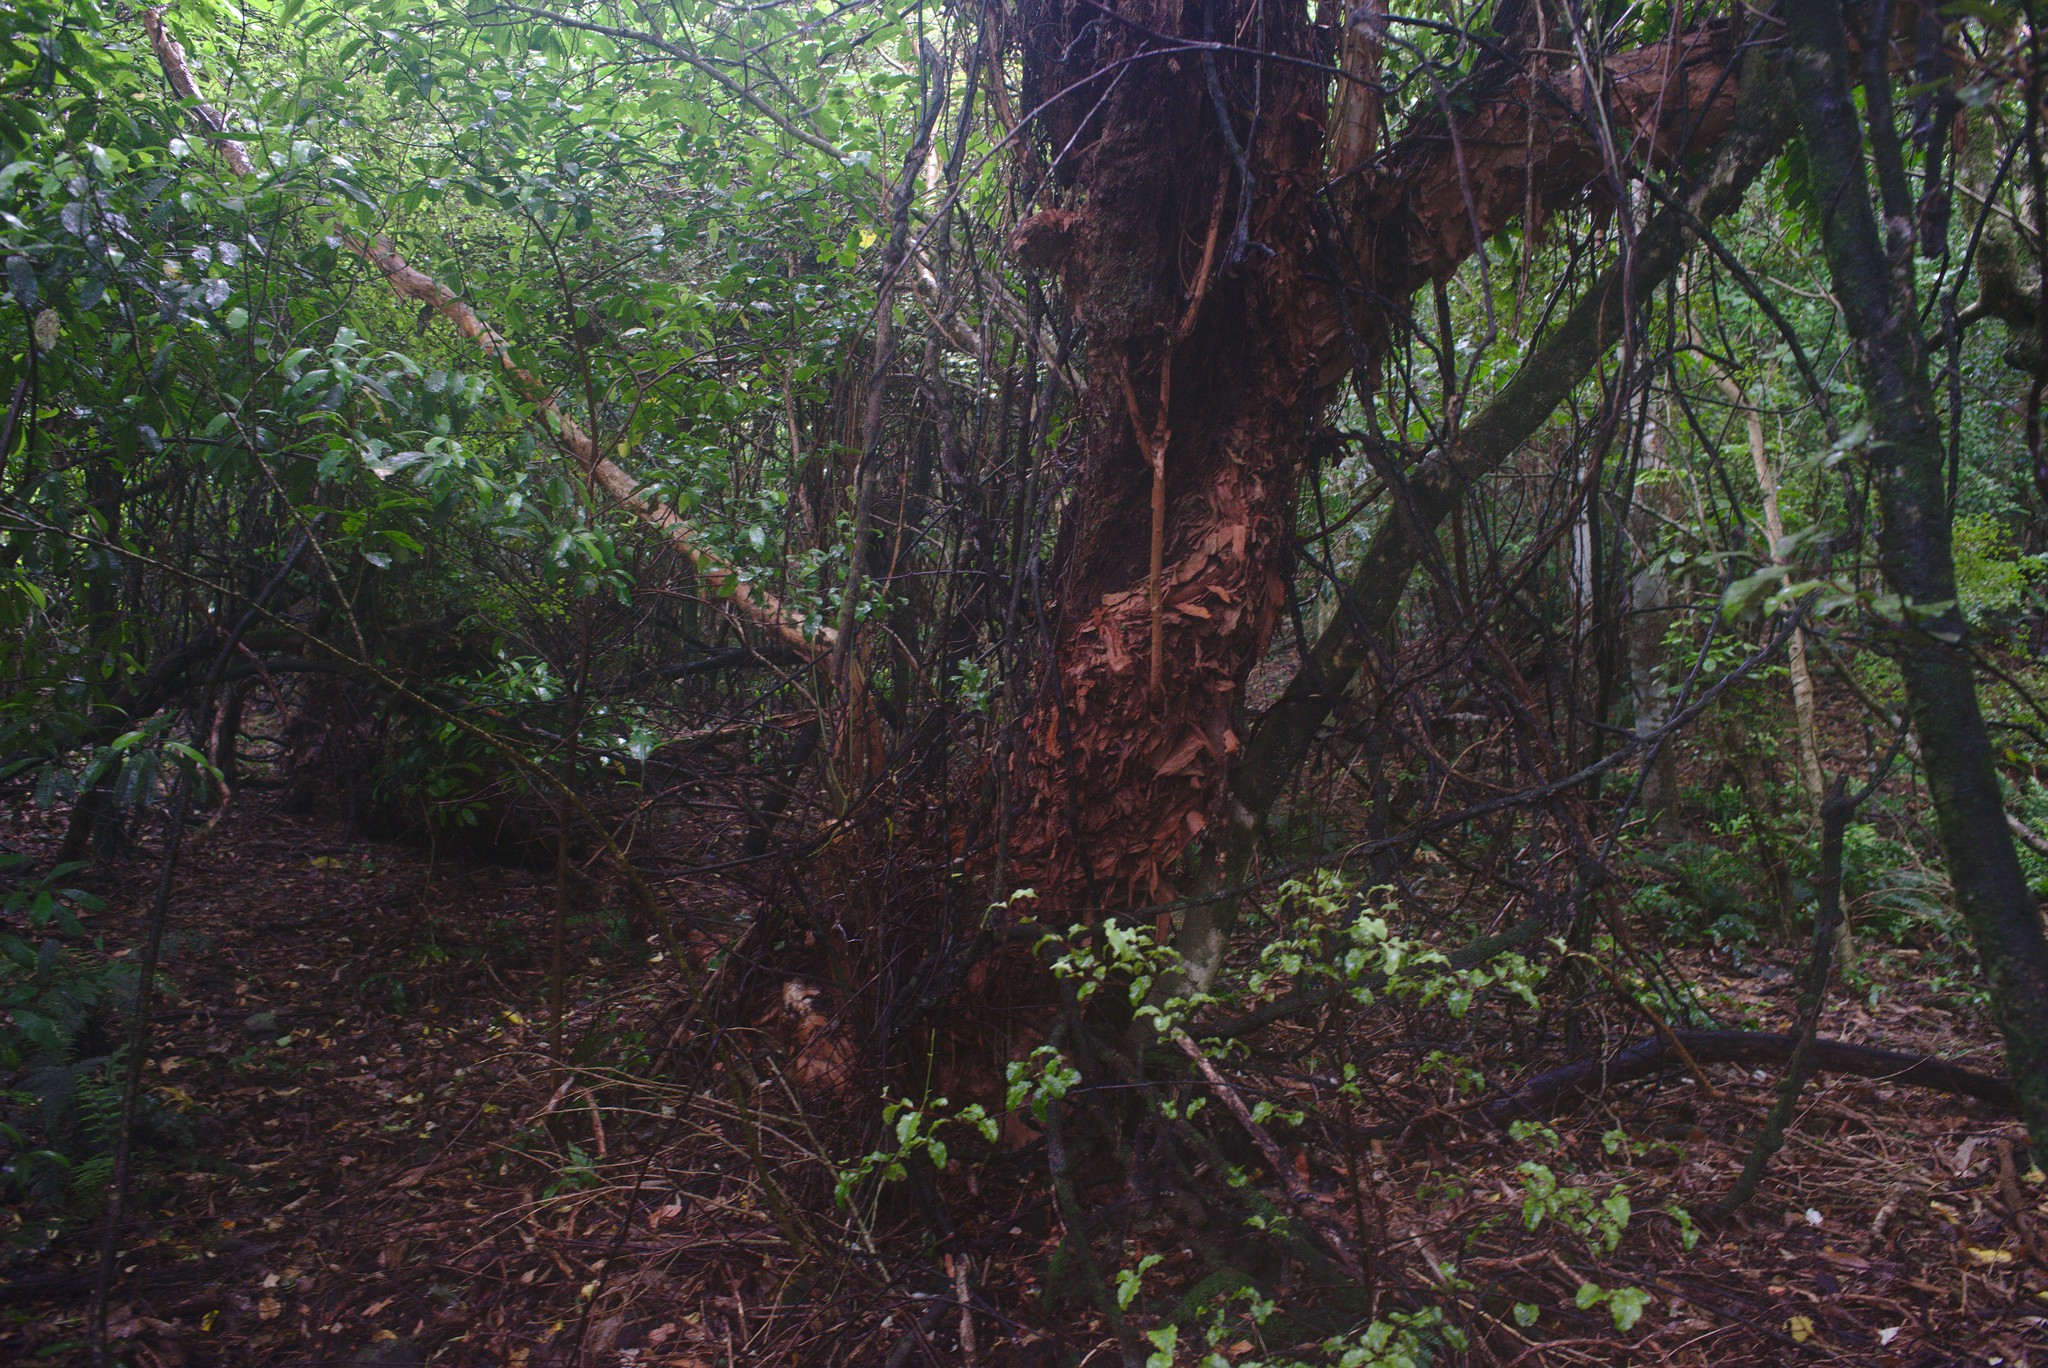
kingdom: Plantae
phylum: Tracheophyta
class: Magnoliopsida
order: Myrtales
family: Onagraceae
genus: Fuchsia
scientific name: Fuchsia excorticata
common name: Tree fuchsia
